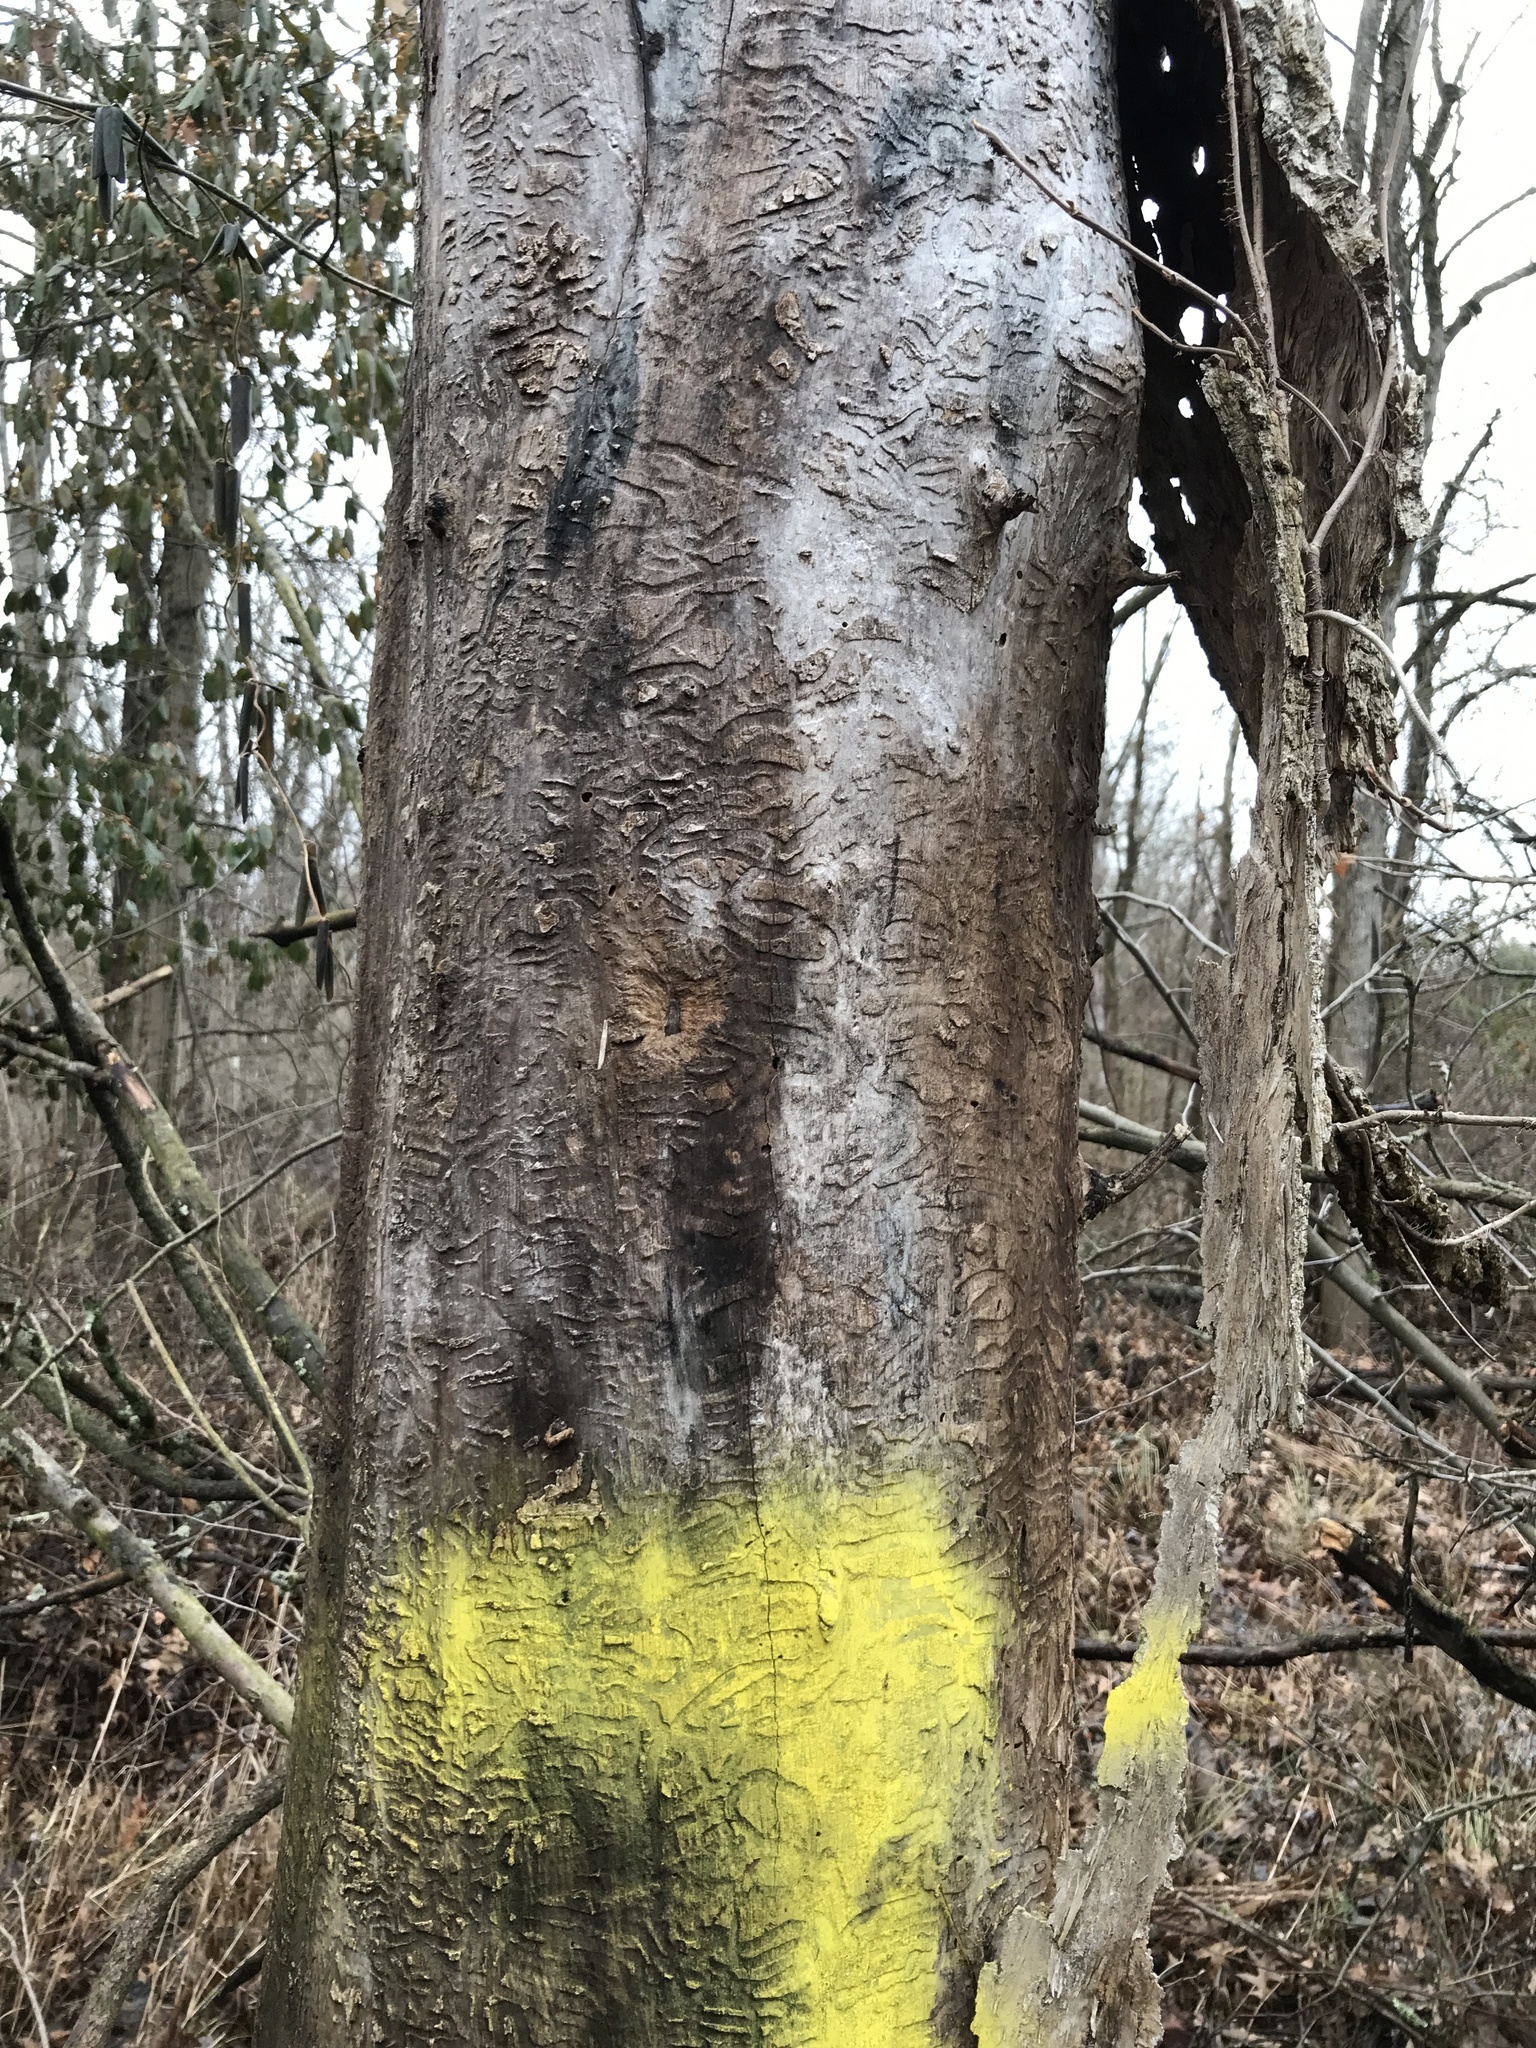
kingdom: Animalia
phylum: Arthropoda
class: Insecta
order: Coleoptera
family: Buprestidae
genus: Agrilus
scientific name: Agrilus planipennis
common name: Emerald ash borer
